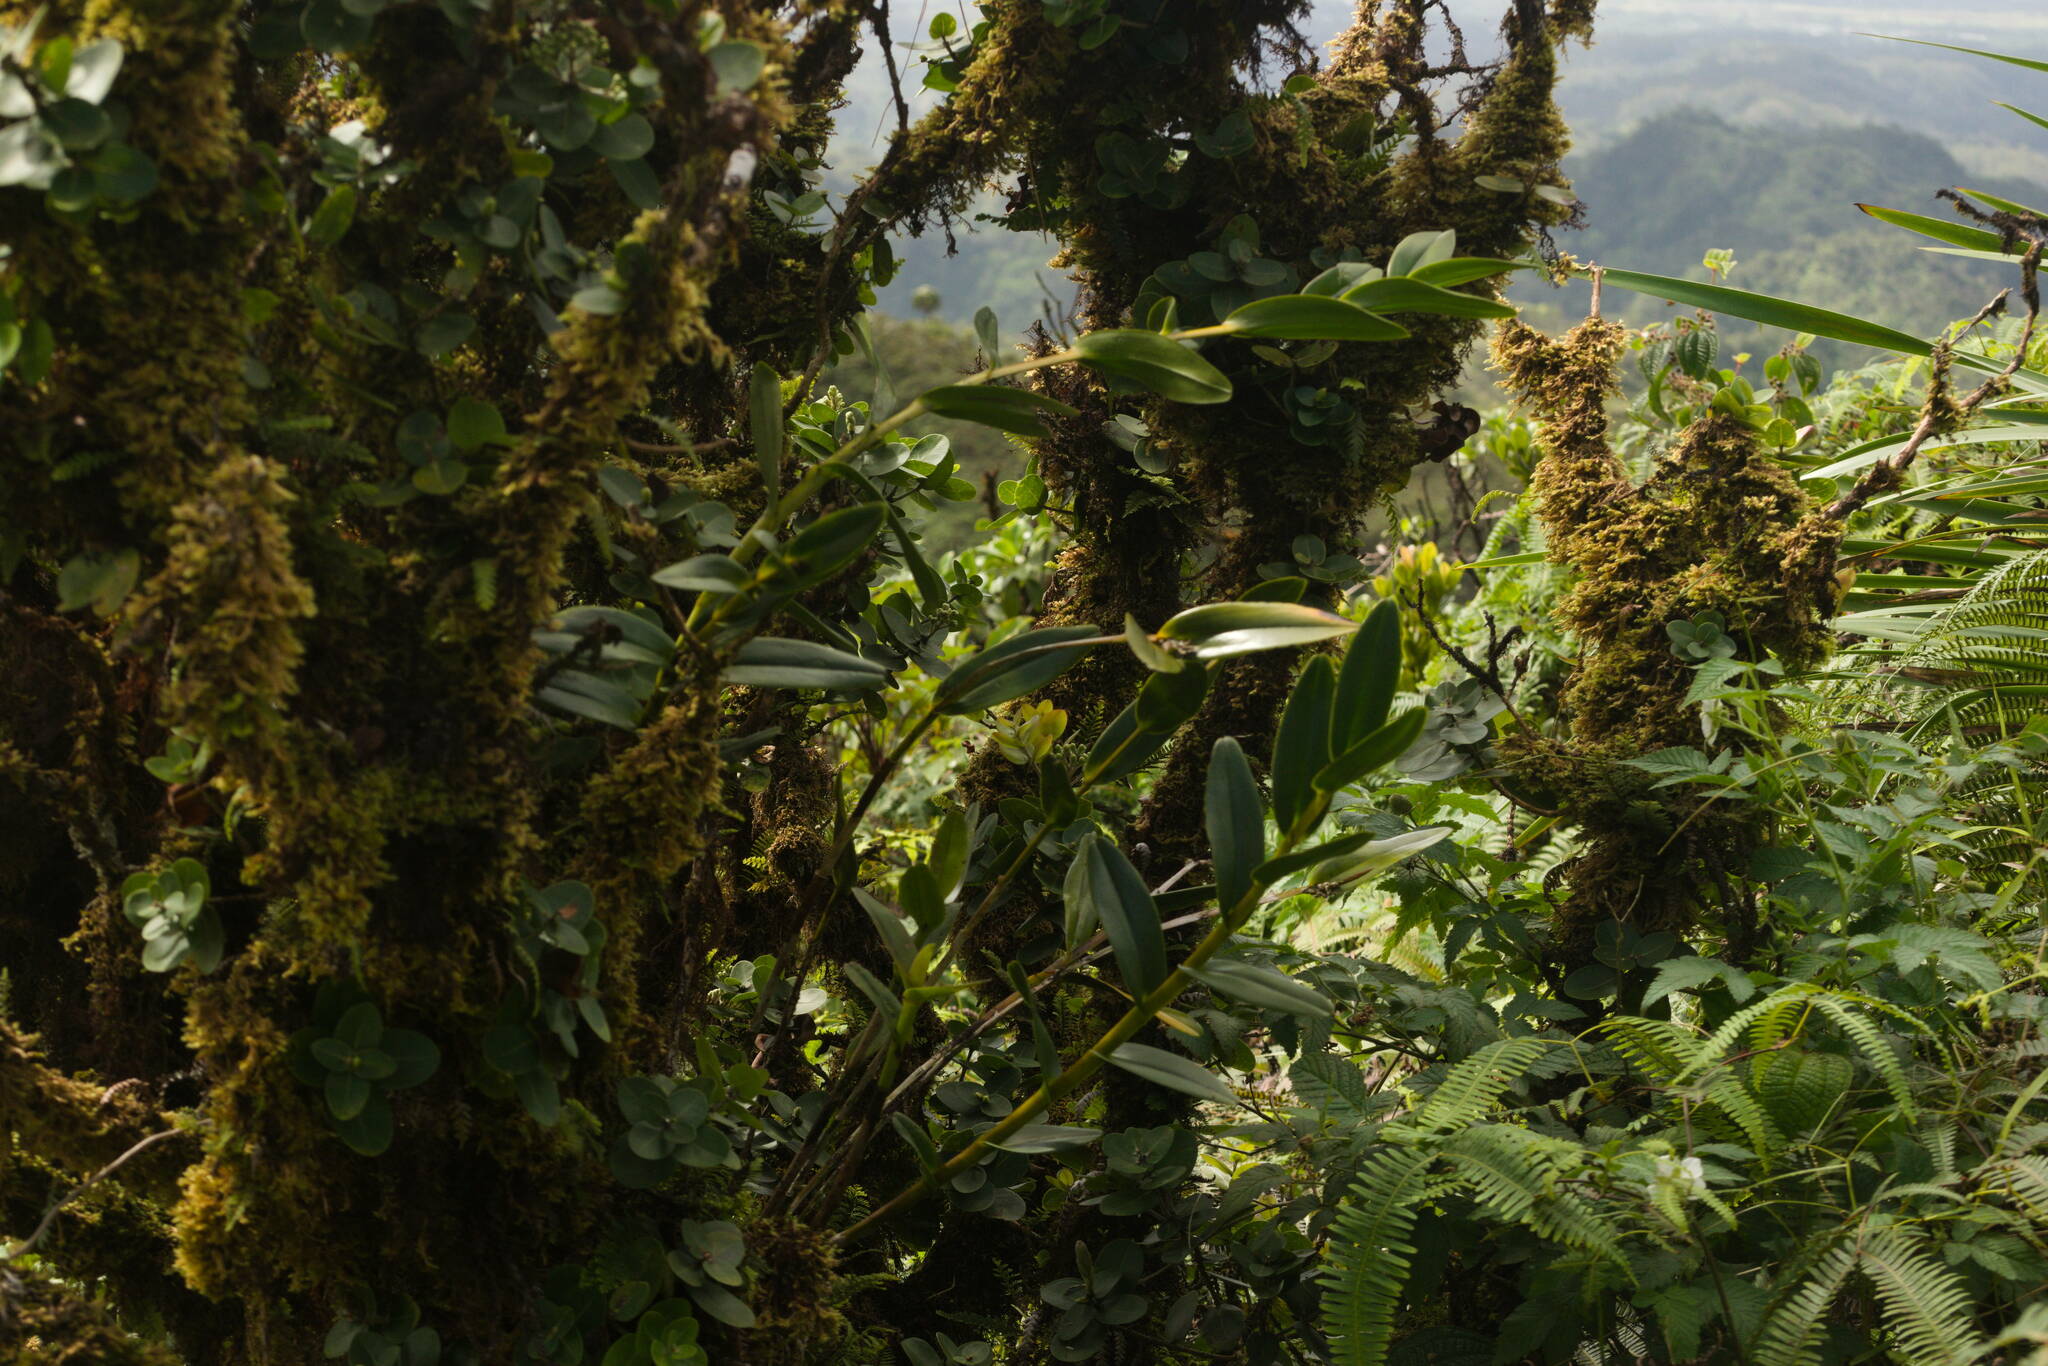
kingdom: Plantae
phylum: Tracheophyta
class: Liliopsida
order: Asparagales
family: Orchidaceae
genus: Dendrobium
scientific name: Dendrobium rhombeum
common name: Orchid
